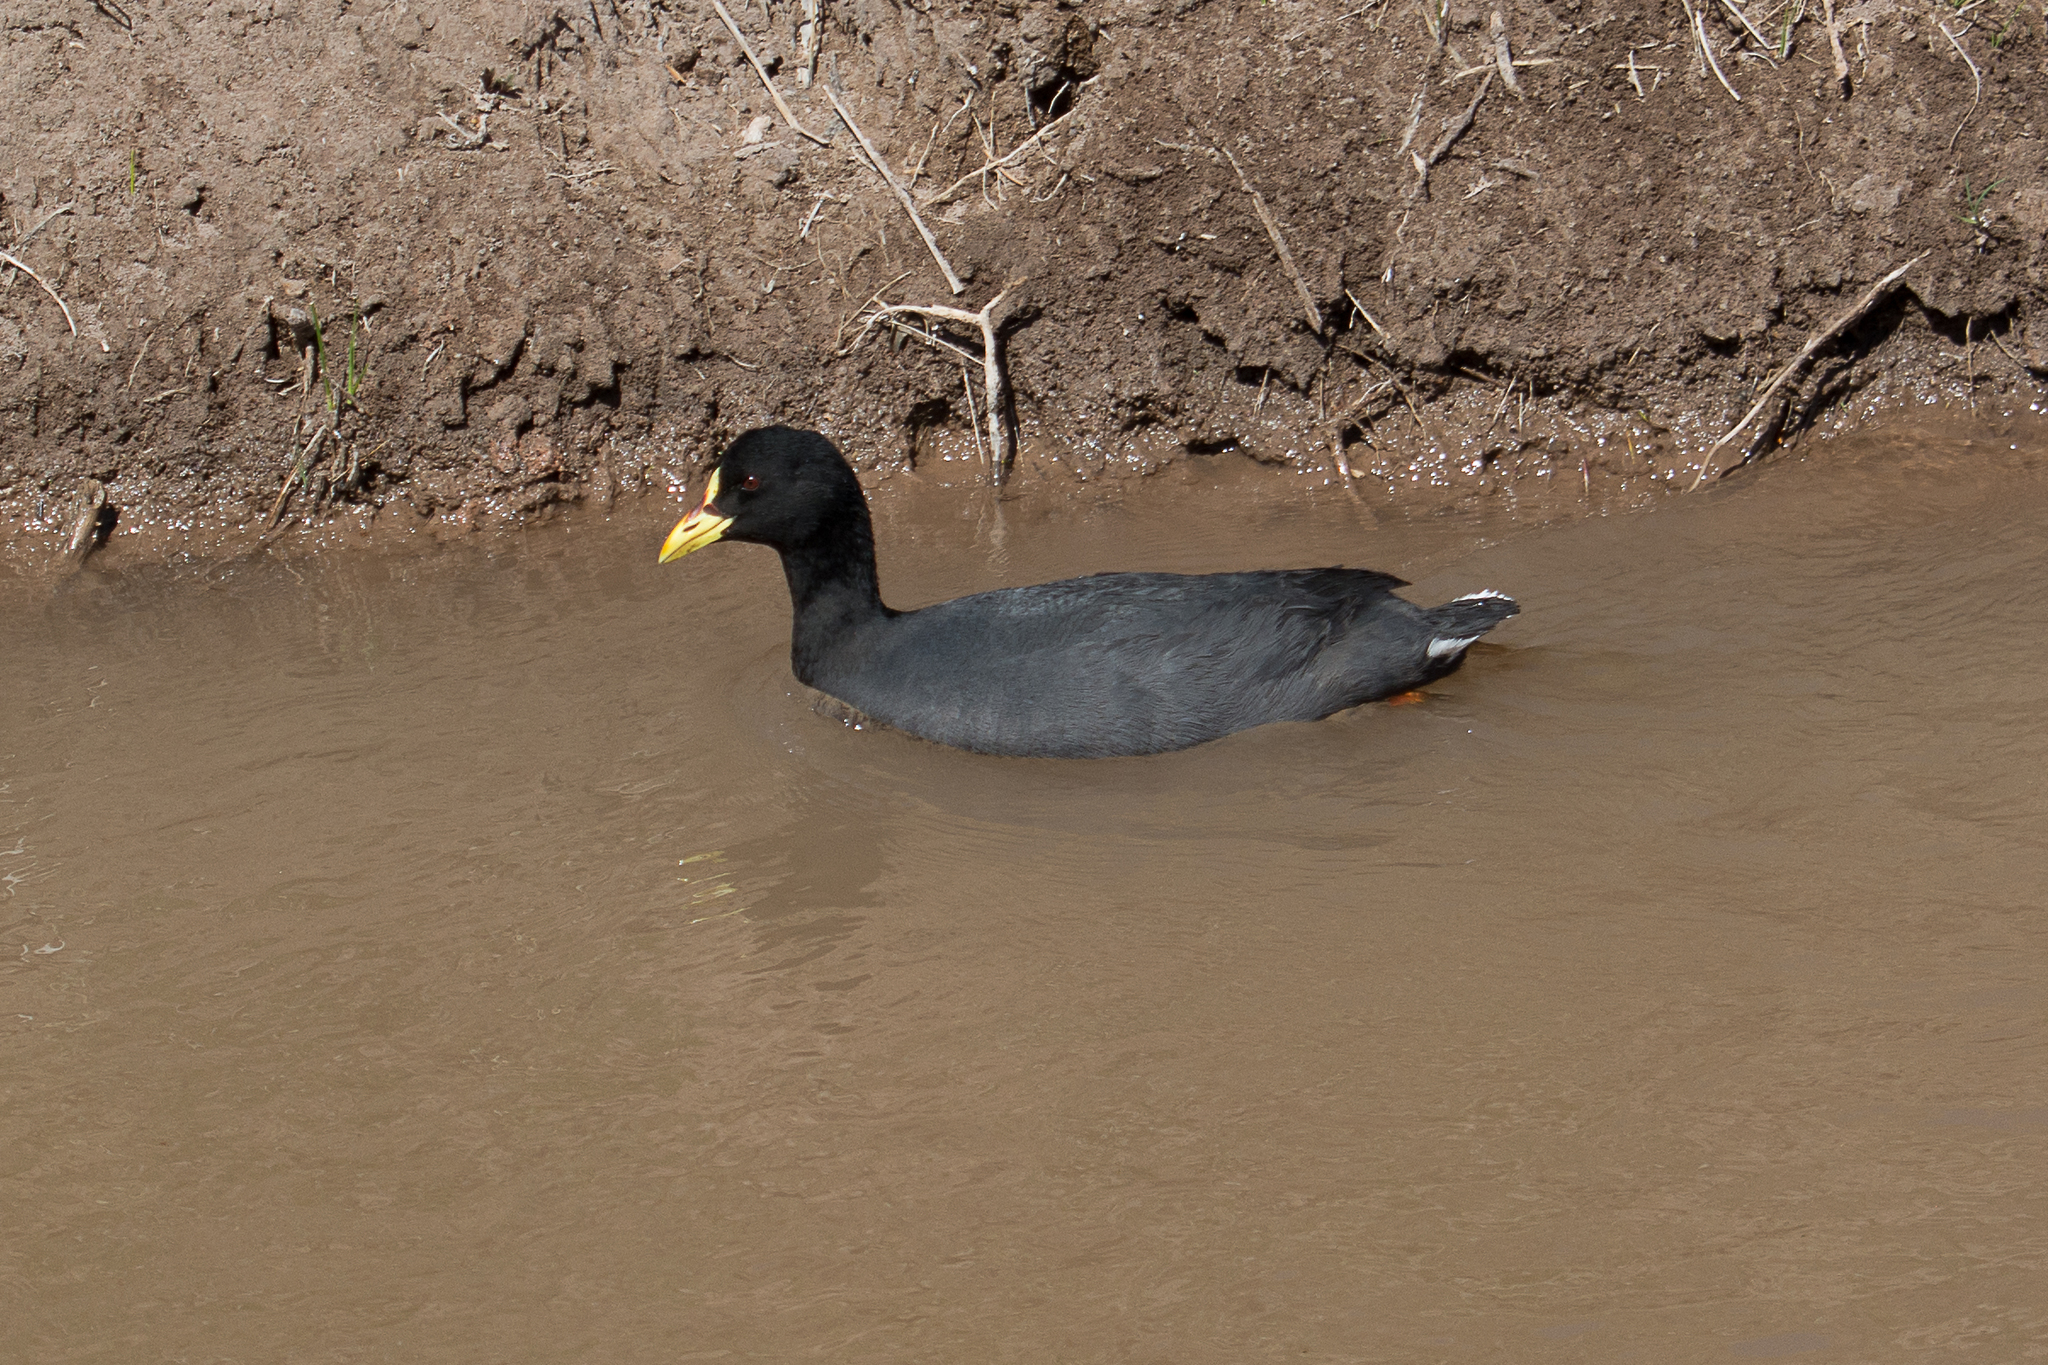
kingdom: Animalia
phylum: Chordata
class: Aves
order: Gruiformes
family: Rallidae
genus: Fulica
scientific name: Fulica armillata
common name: Red-gartered coot
